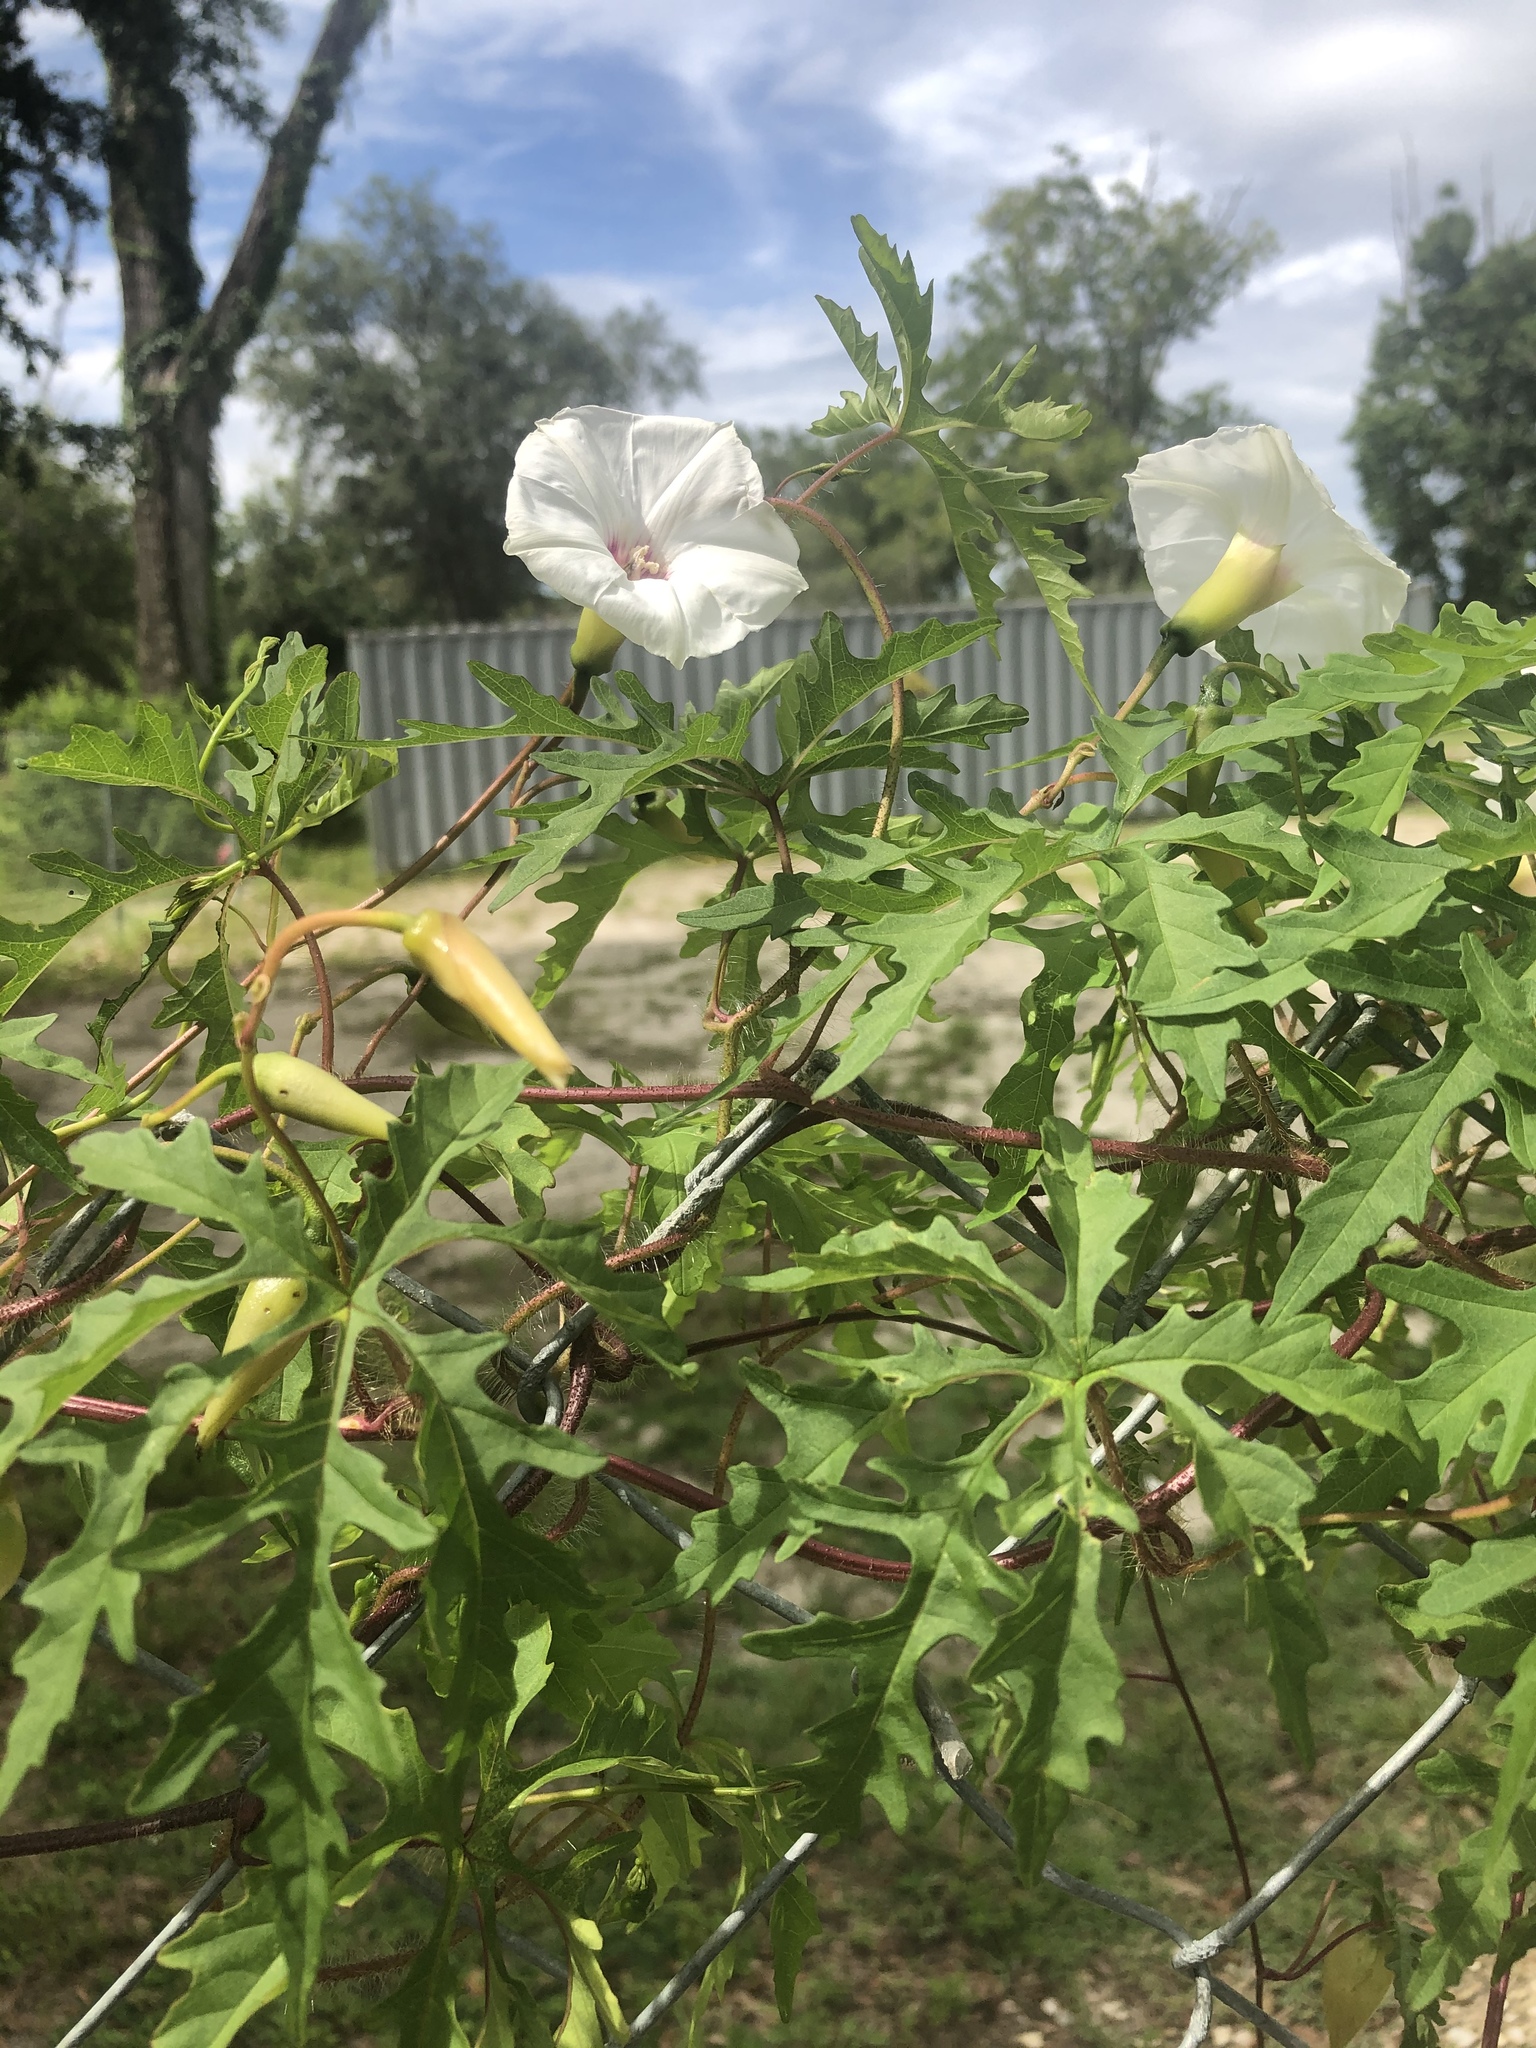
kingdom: Plantae
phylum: Tracheophyta
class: Magnoliopsida
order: Solanales
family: Convolvulaceae
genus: Distimake
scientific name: Distimake dissectus
